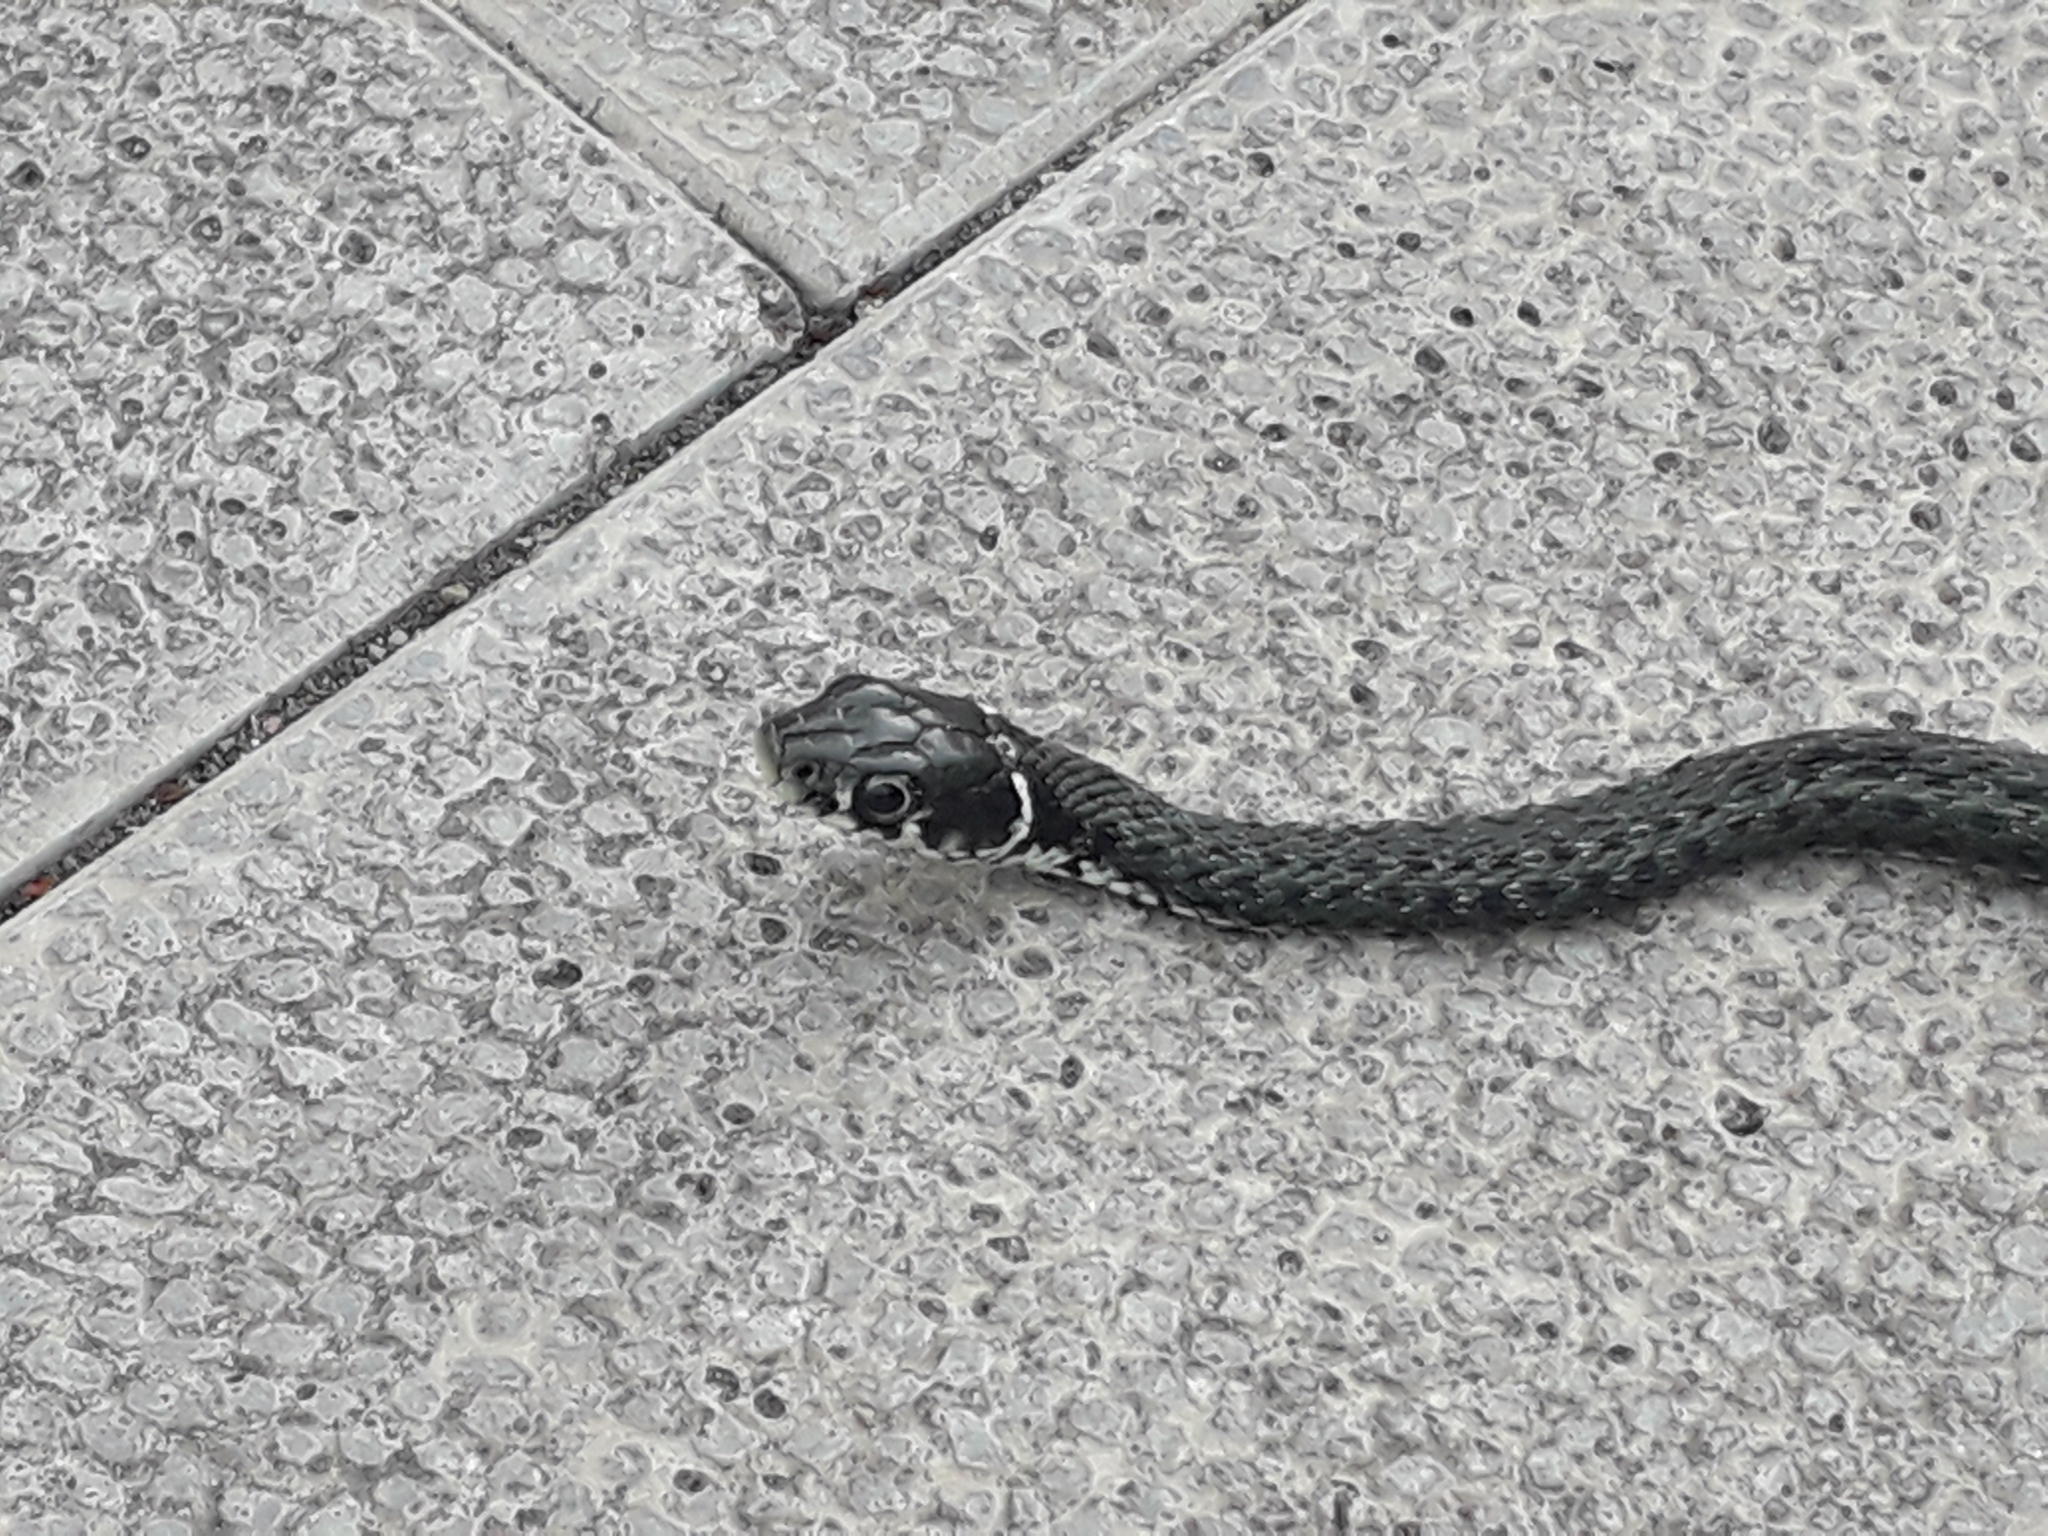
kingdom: Animalia
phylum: Chordata
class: Squamata
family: Colubridae
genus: Natrix
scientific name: Natrix natrix
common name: Grass snake
